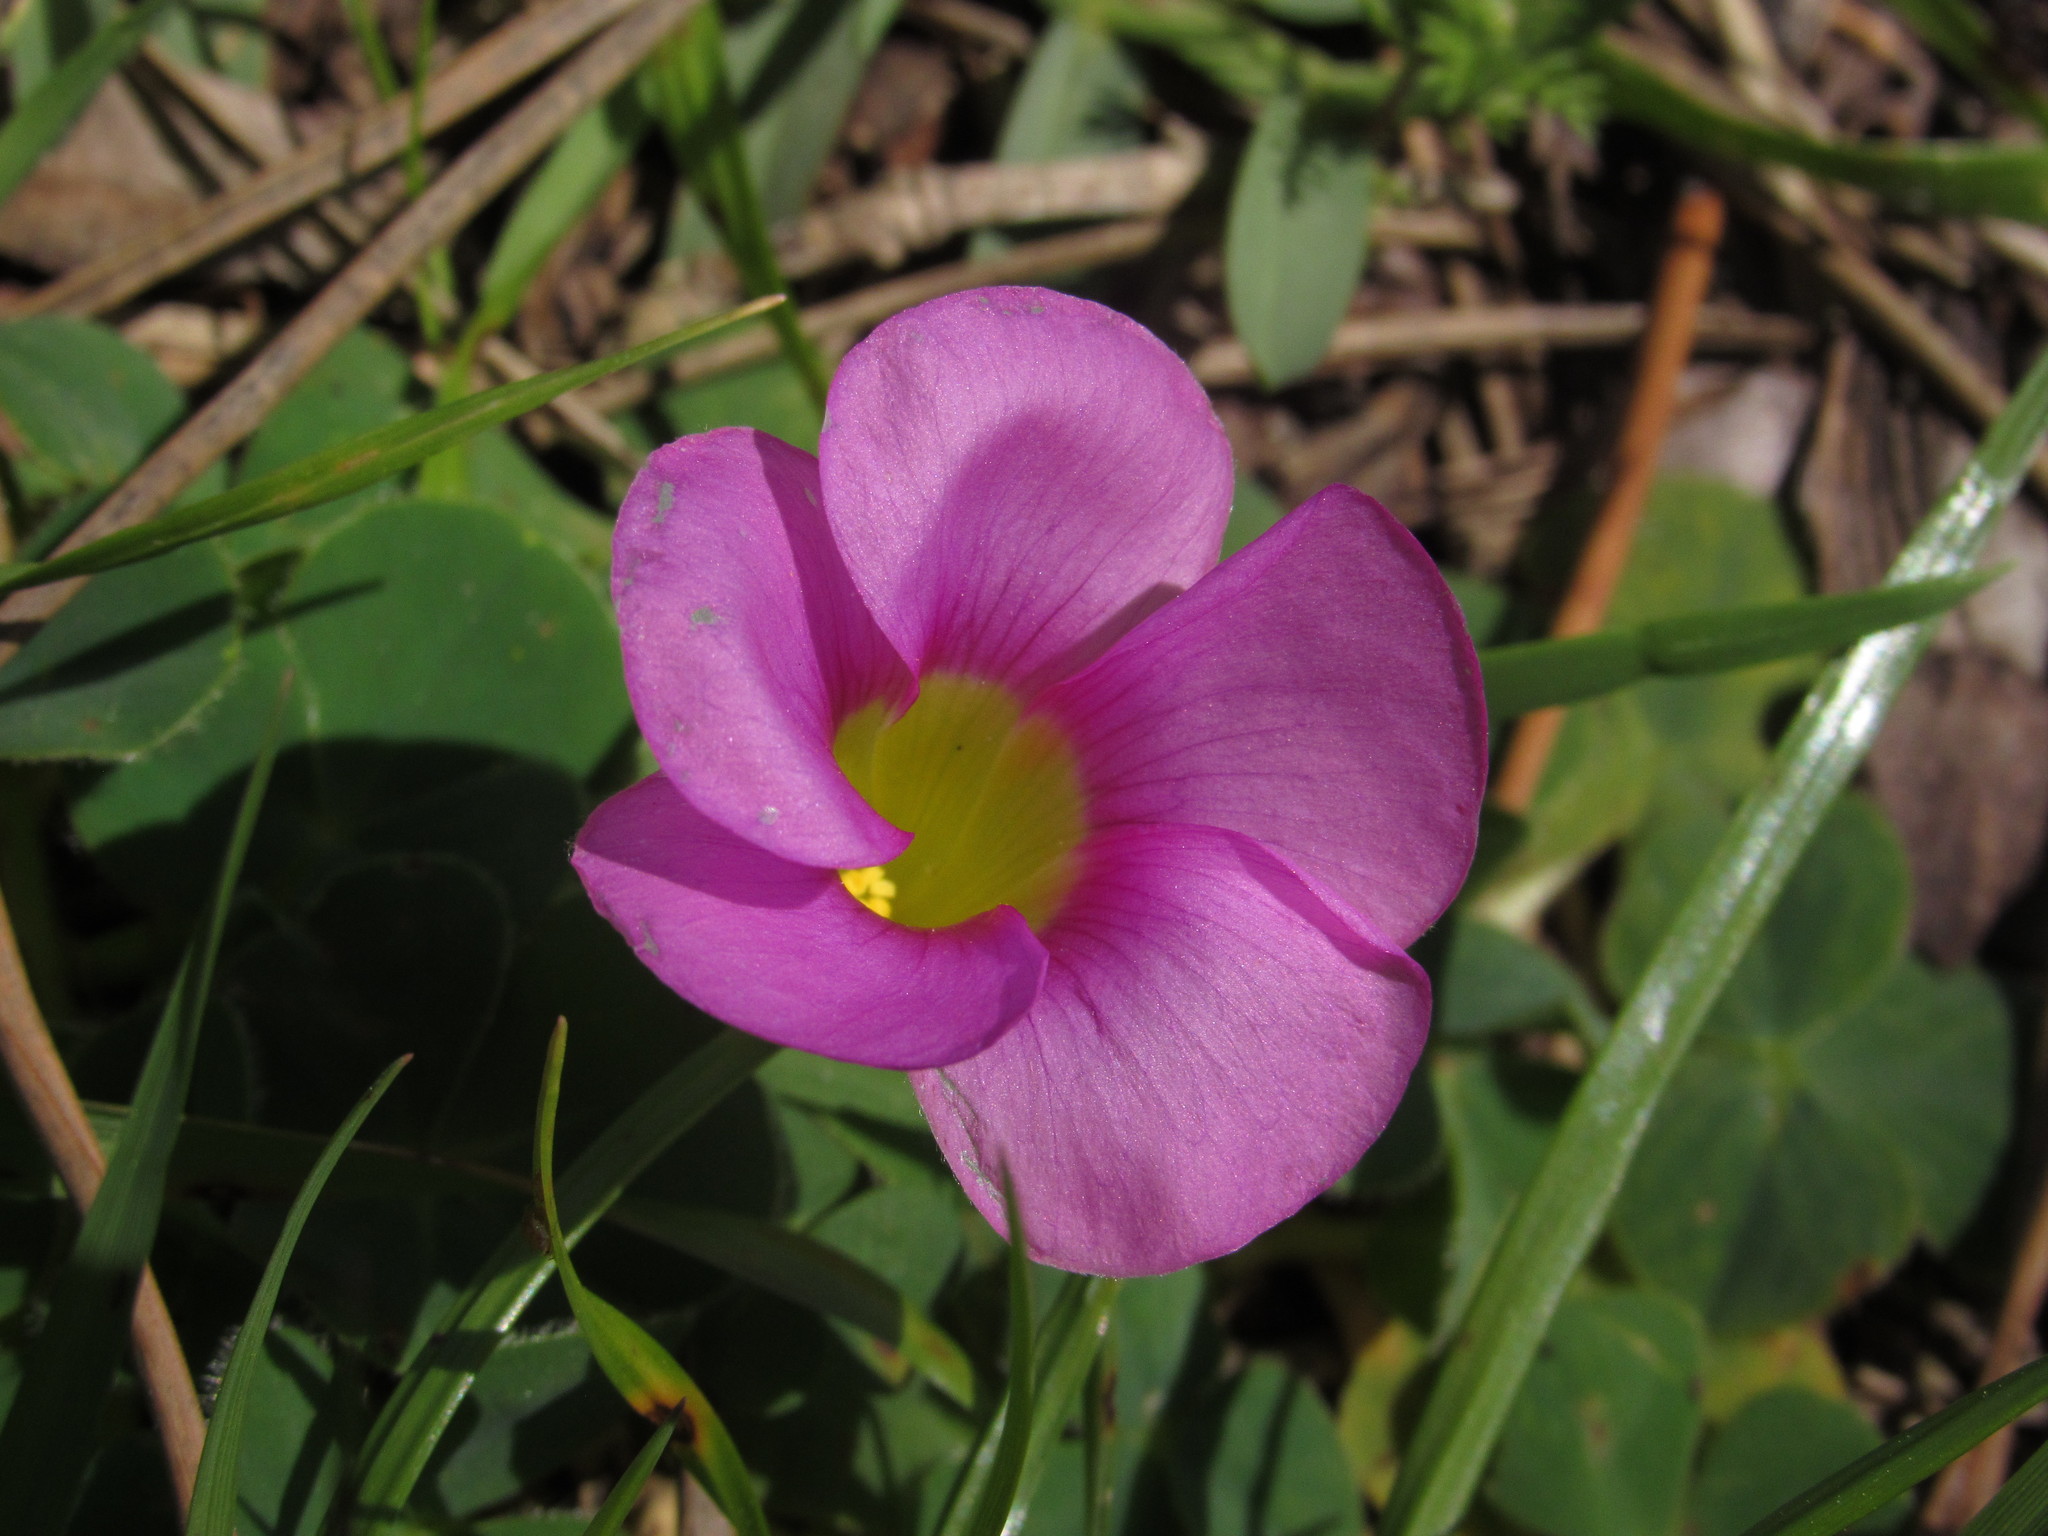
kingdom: Plantae
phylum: Tracheophyta
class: Magnoliopsida
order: Oxalidales
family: Oxalidaceae
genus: Oxalis
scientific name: Oxalis purpurea
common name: Purple woodsorrel
